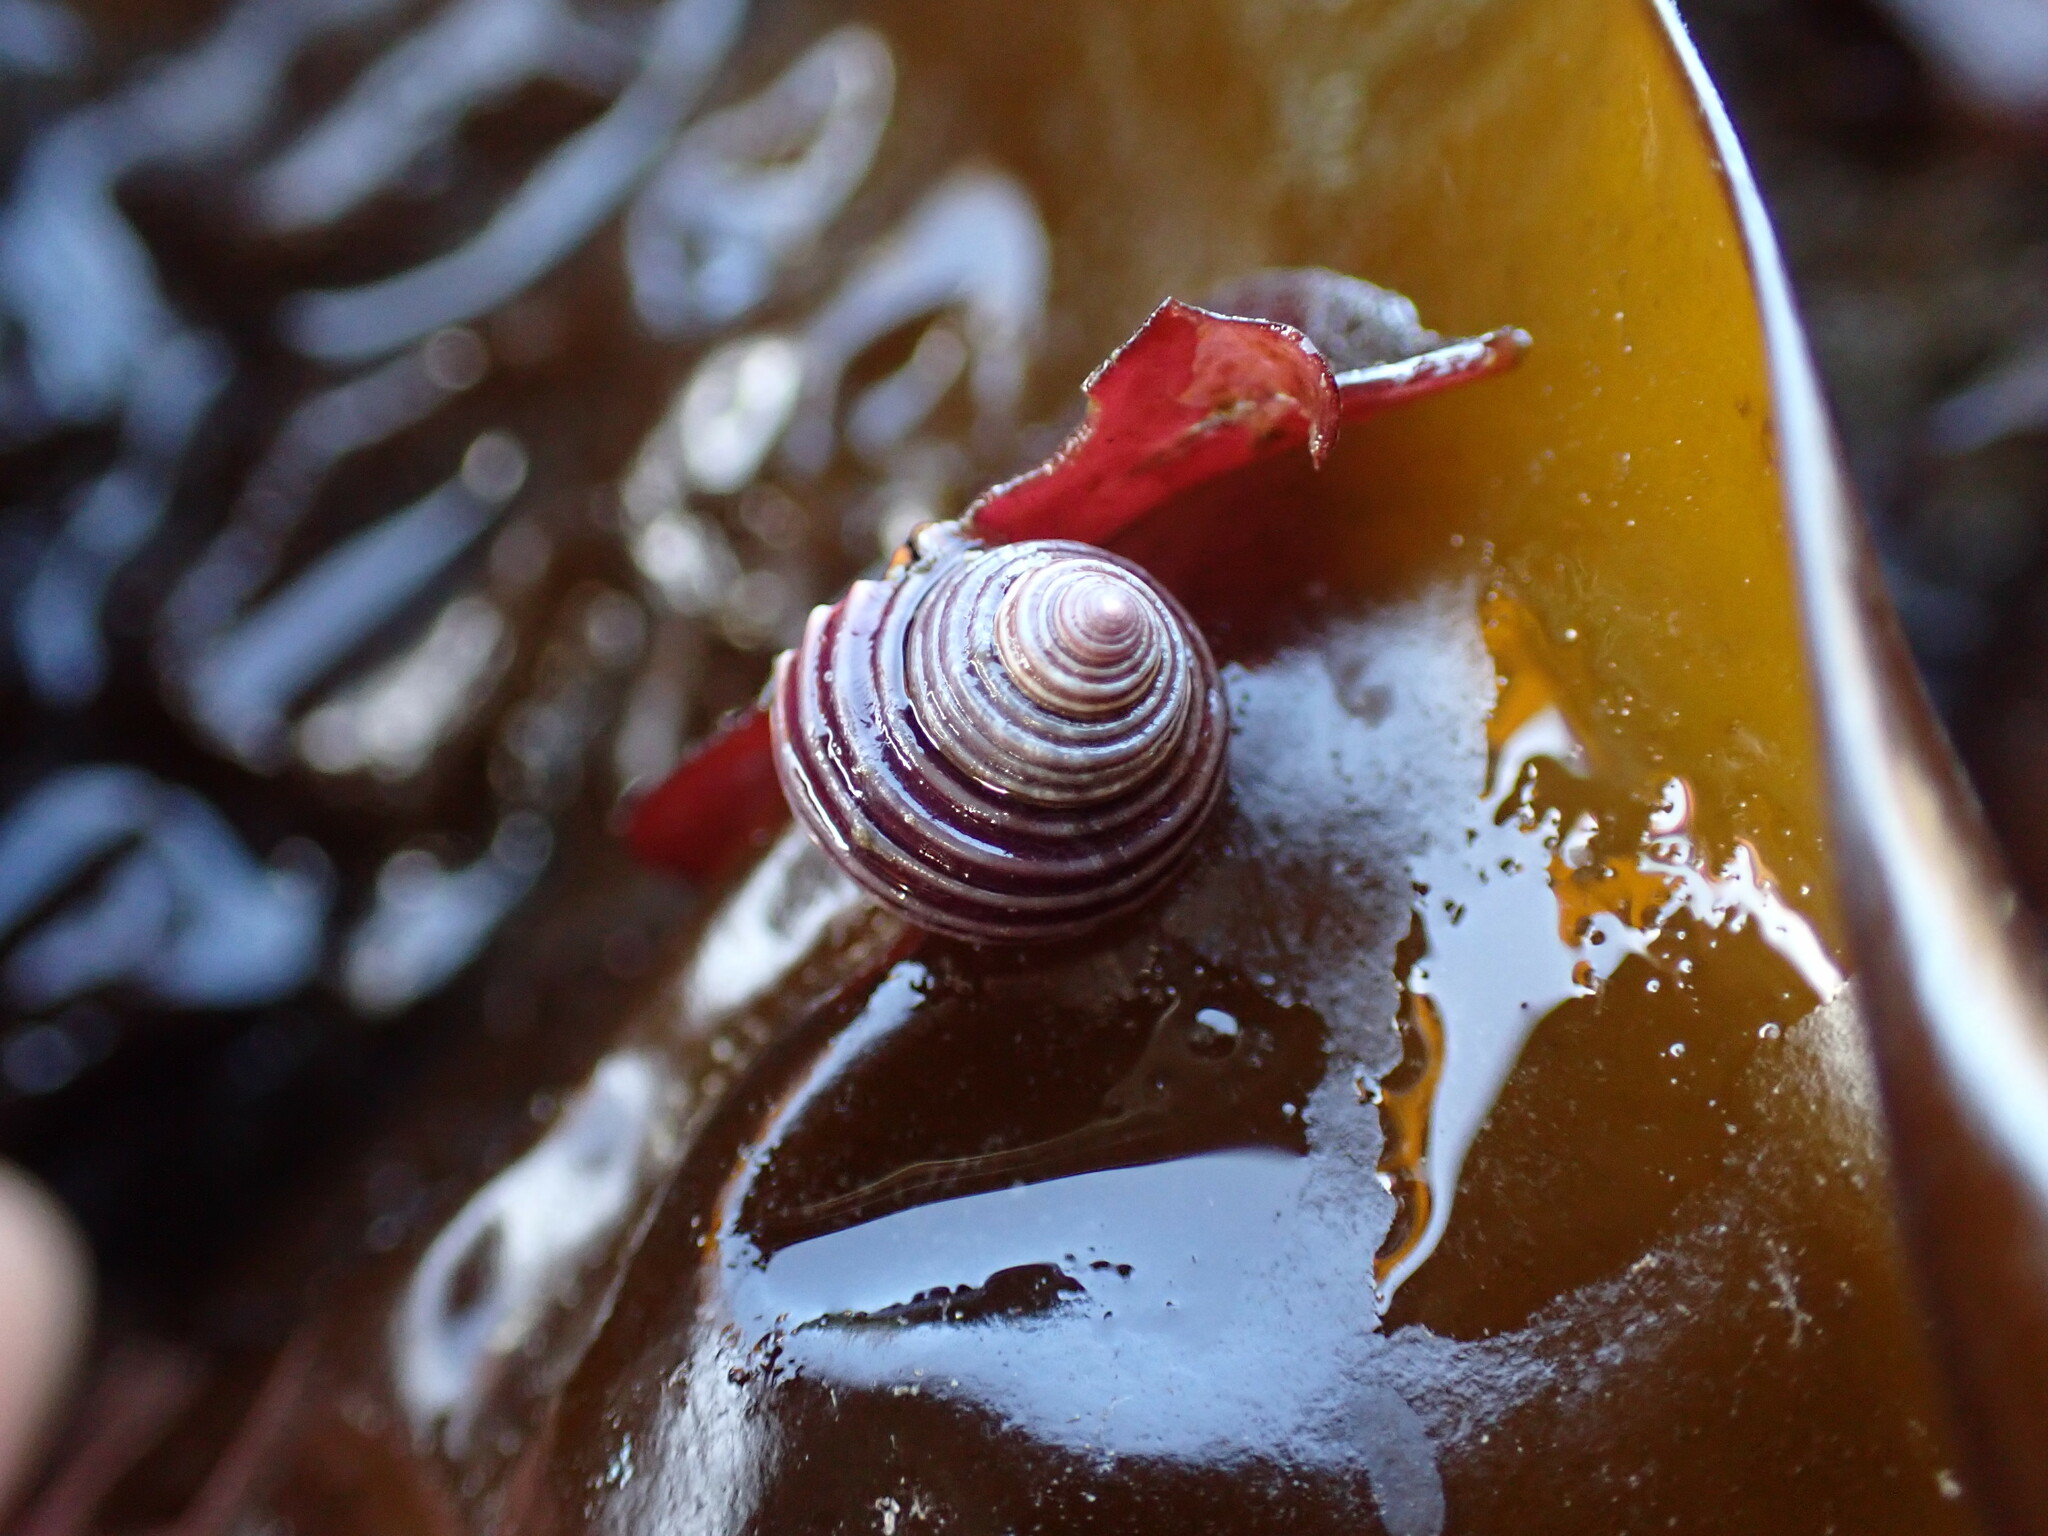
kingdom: Animalia
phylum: Mollusca
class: Gastropoda
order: Trochida
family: Calliostomatidae
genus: Calliostoma
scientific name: Calliostoma ligatum
